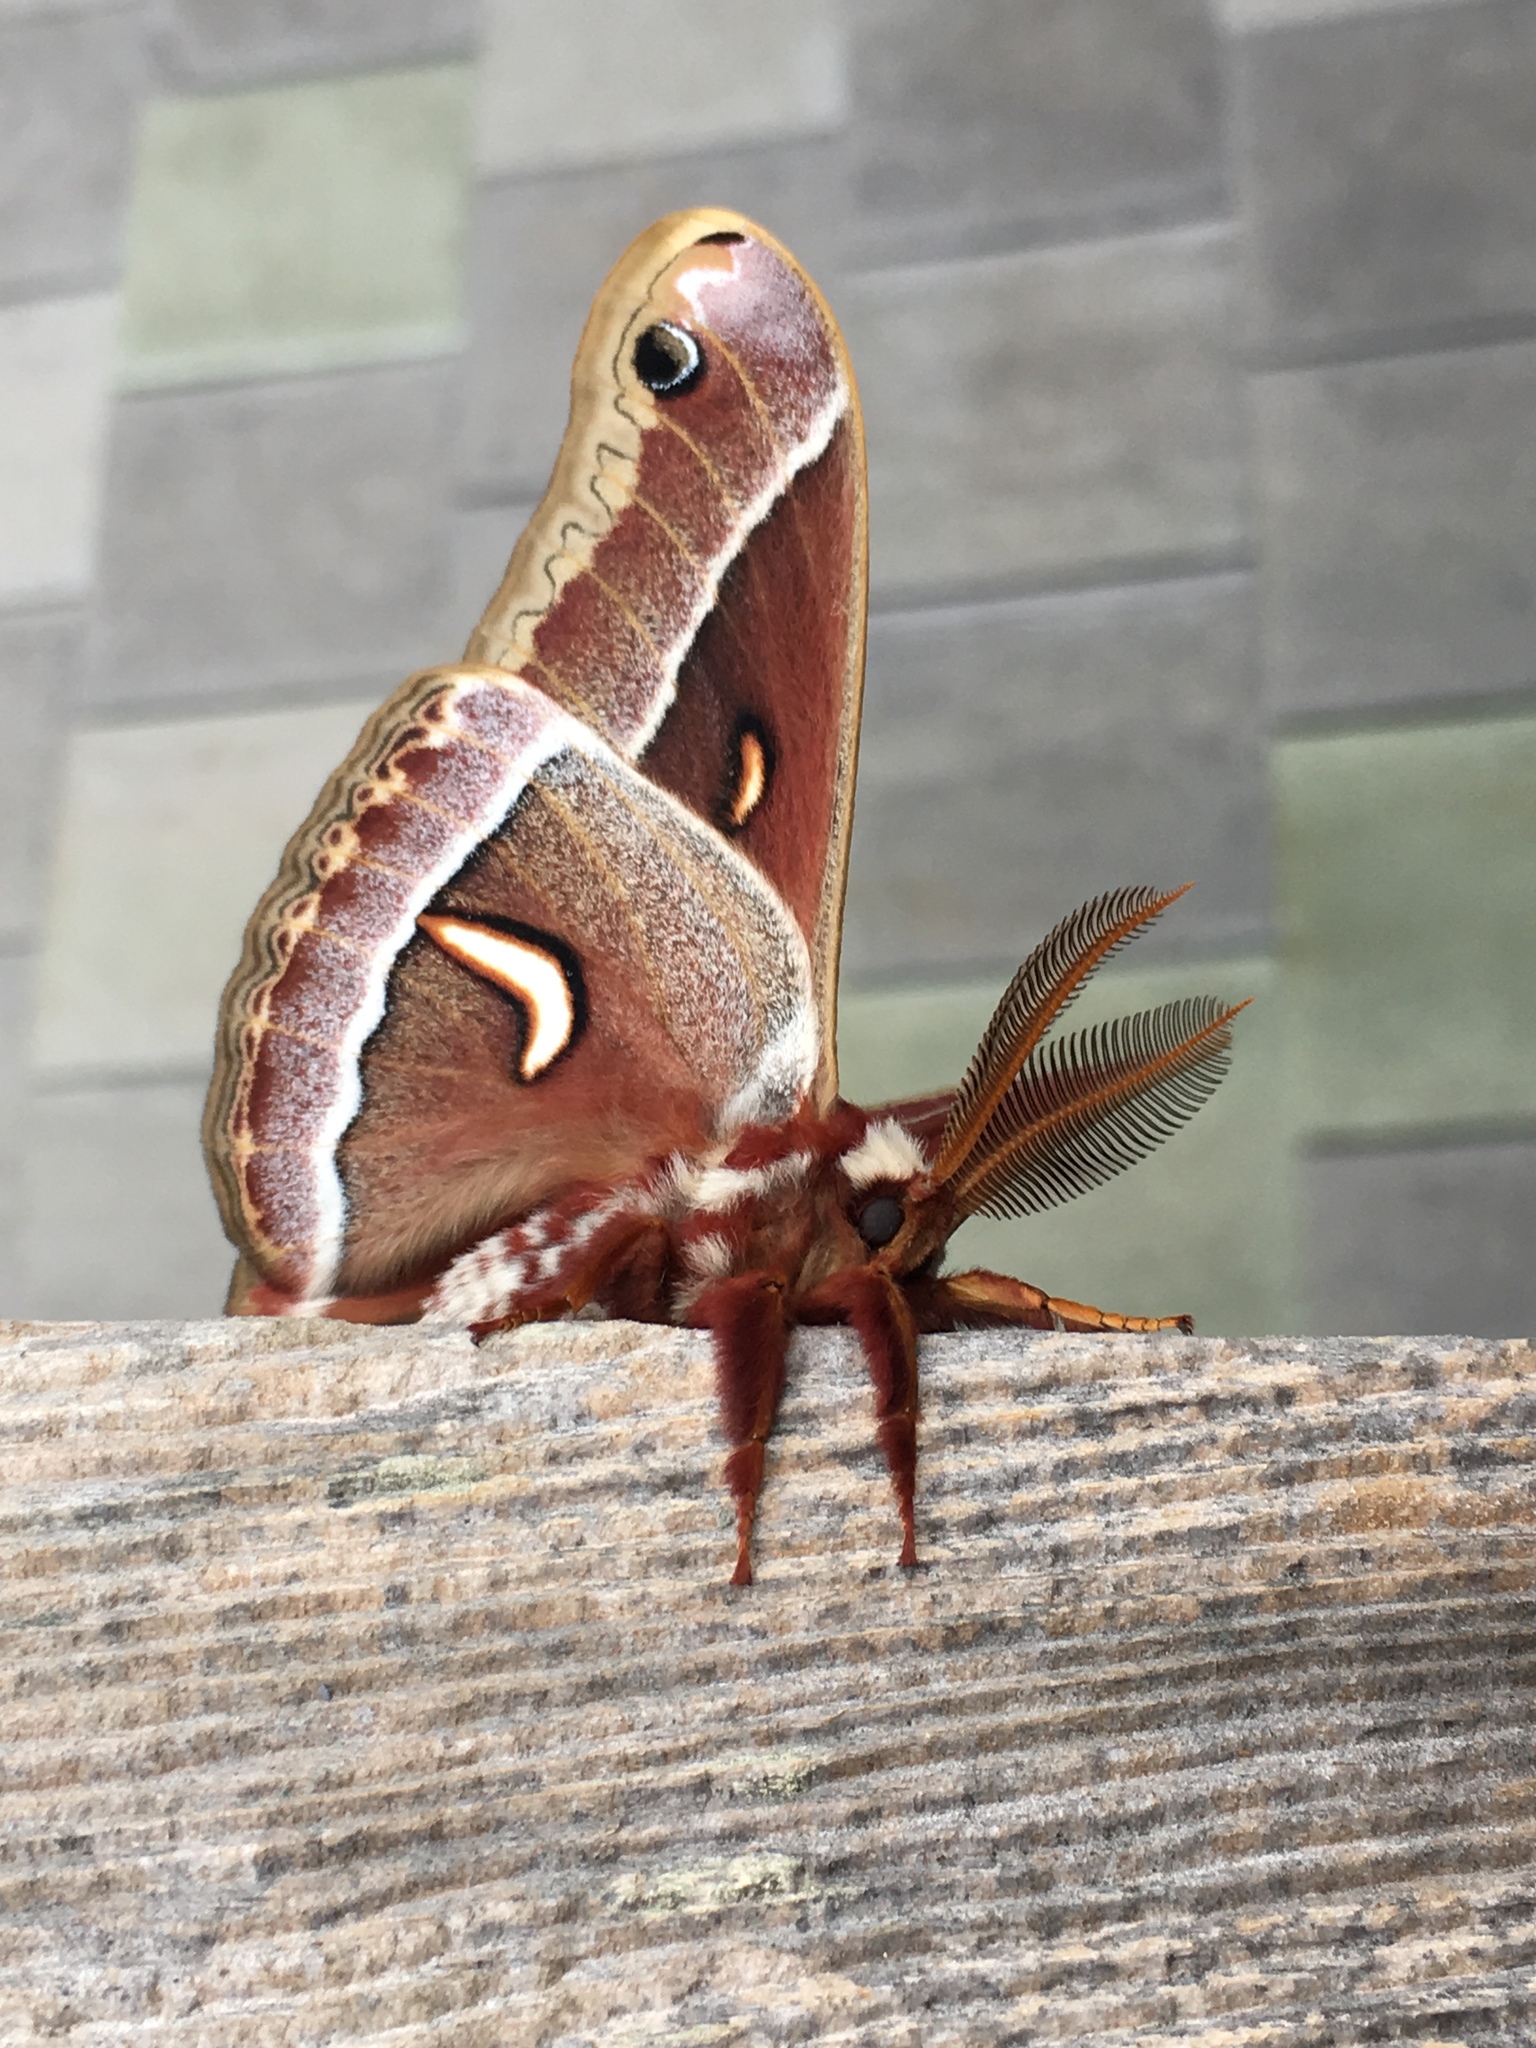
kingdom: Animalia
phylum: Arthropoda
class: Insecta
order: Lepidoptera
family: Saturniidae
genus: Hyalophora
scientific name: Hyalophora euryalus
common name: Ceanothus silkmoth
